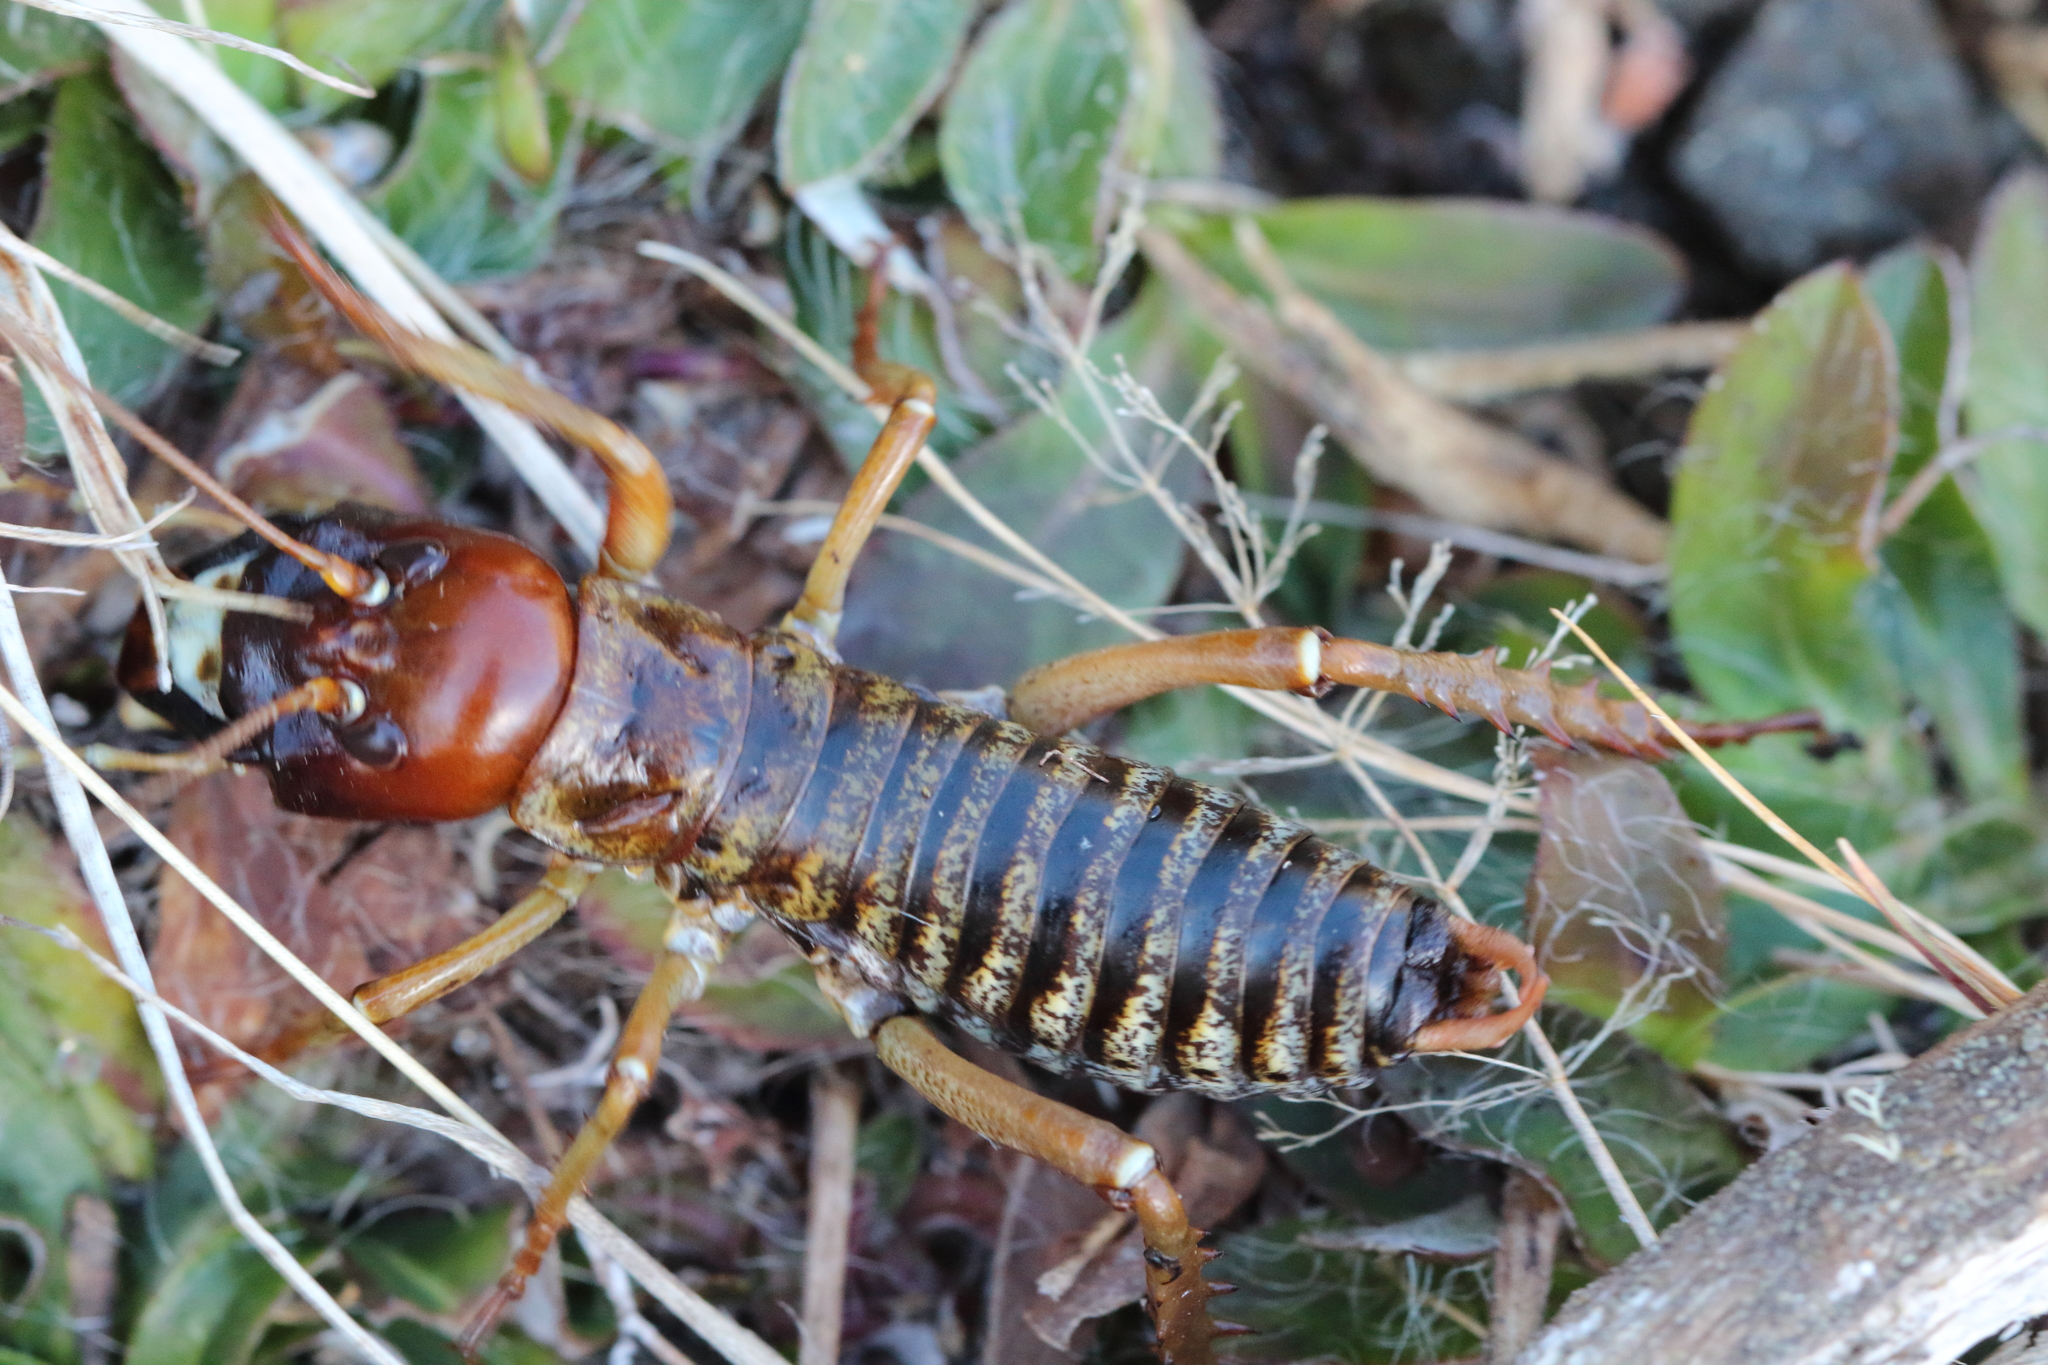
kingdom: Animalia
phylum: Arthropoda
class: Insecta
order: Orthoptera
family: Anostostomatidae
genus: Hemideina
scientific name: Hemideina maori
